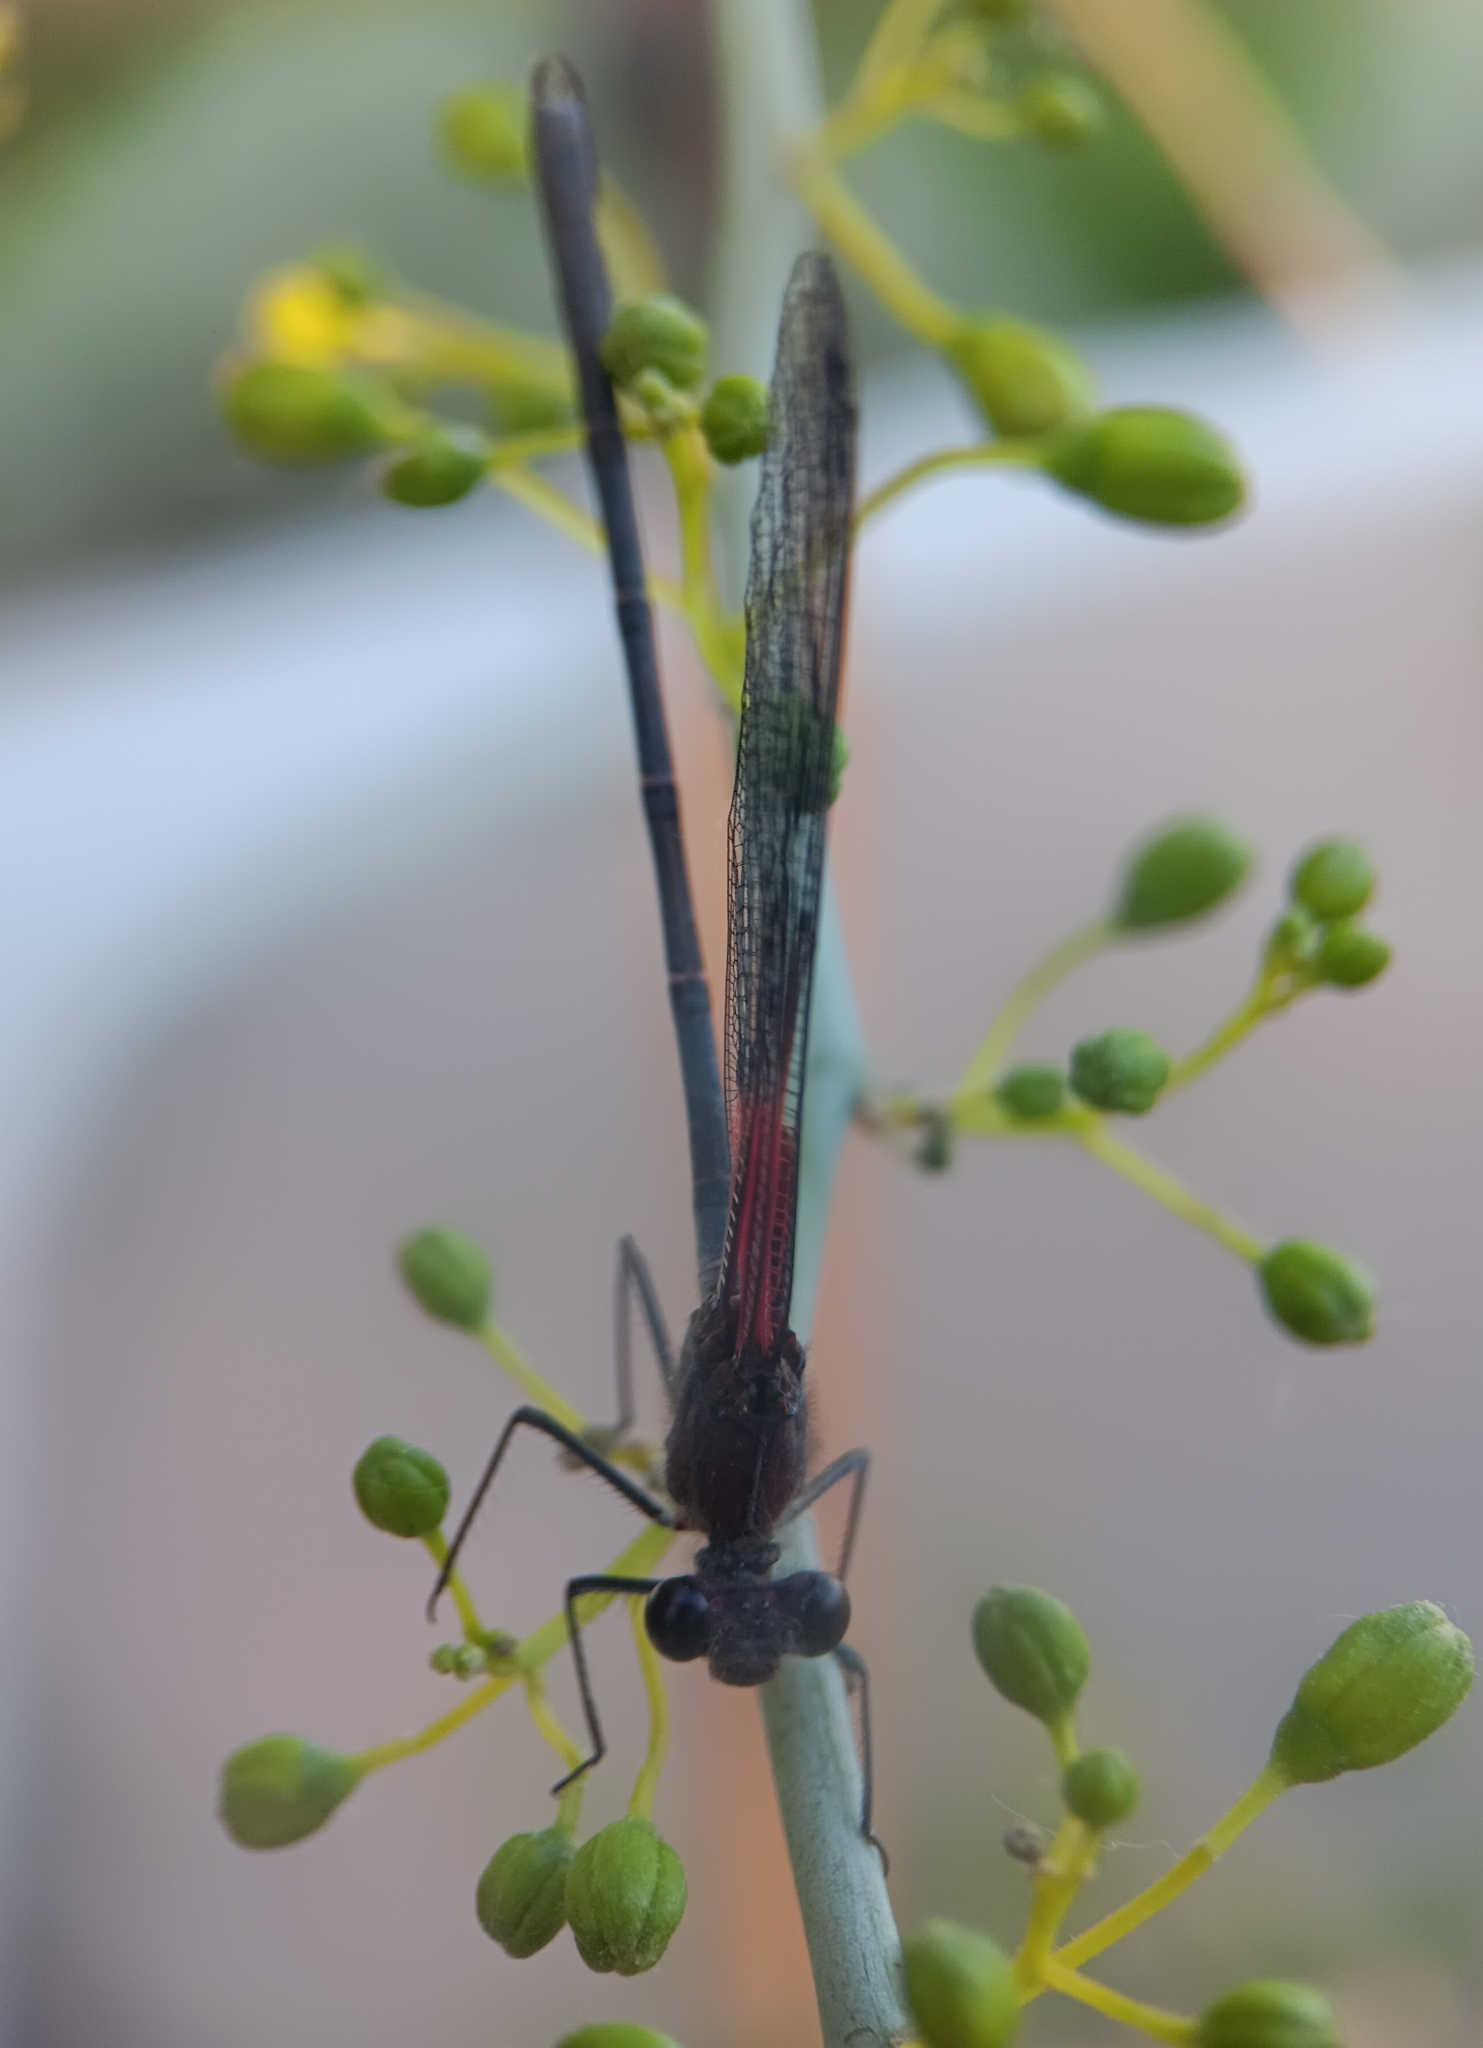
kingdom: Animalia
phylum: Arthropoda
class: Insecta
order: Odonata
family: Calopterygidae
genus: Hetaerina
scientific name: Hetaerina americana
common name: American rubyspot
